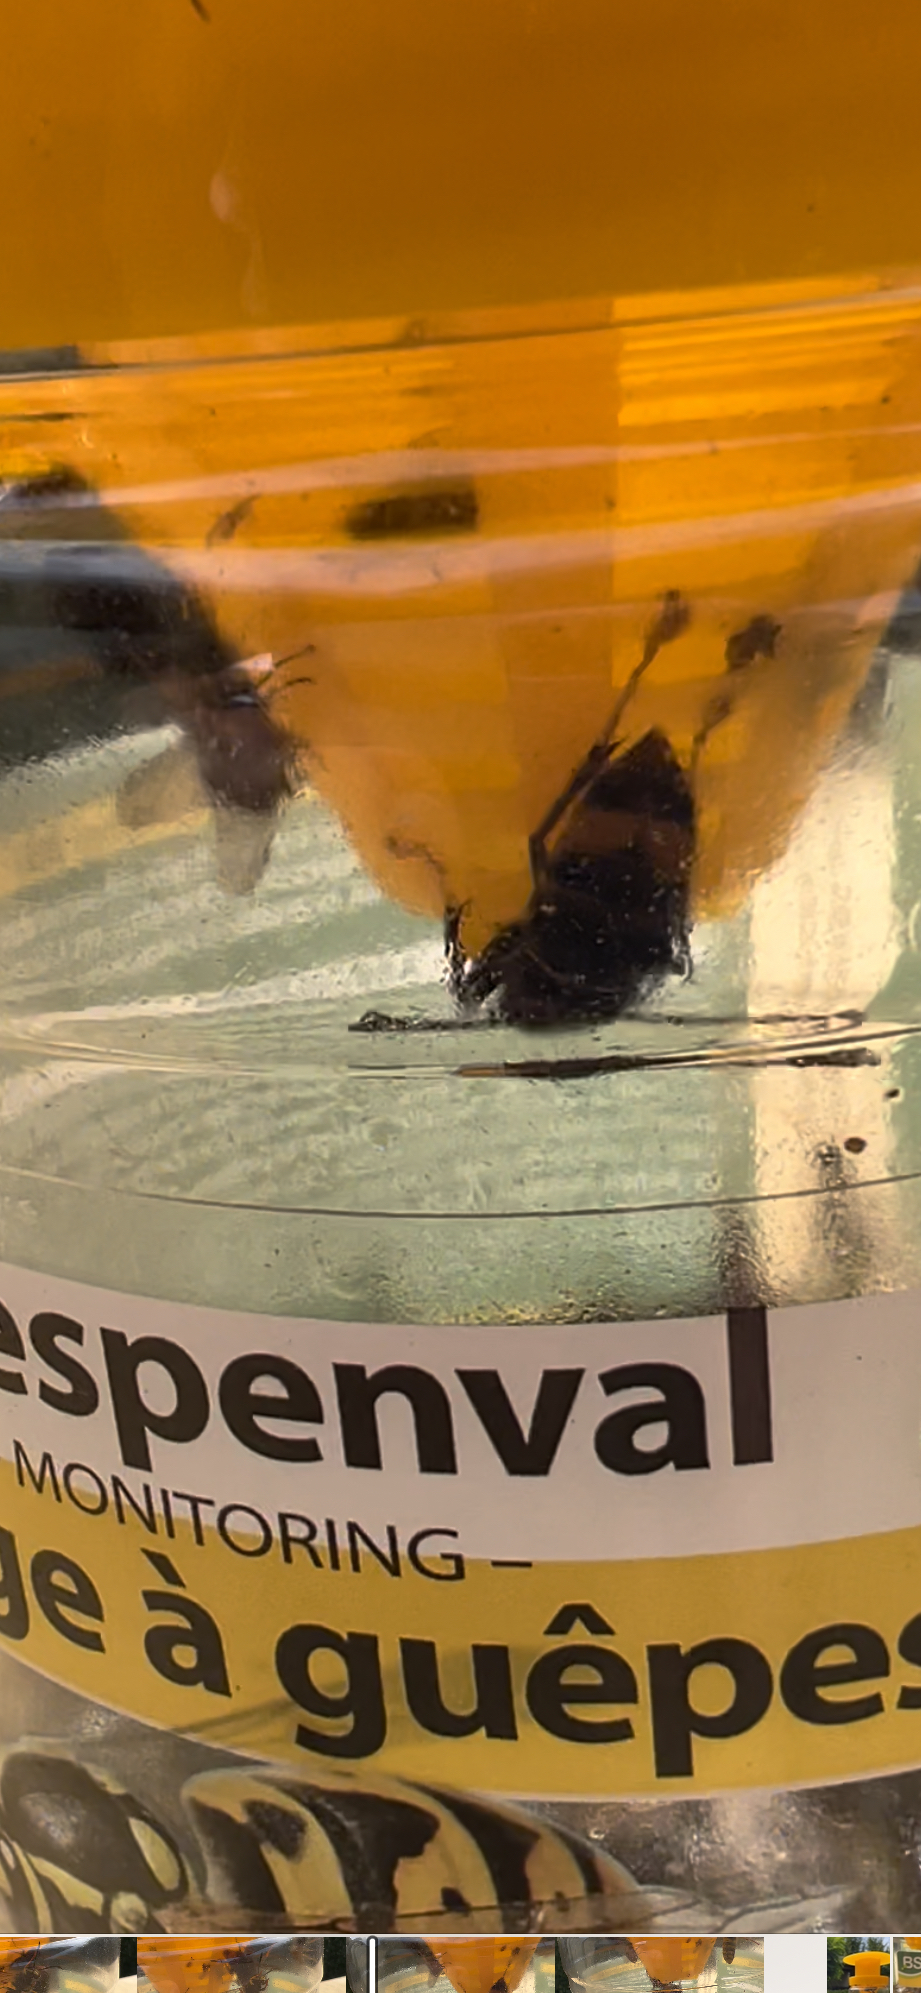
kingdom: Animalia
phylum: Arthropoda
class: Insecta
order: Hymenoptera
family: Vespidae
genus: Vespa
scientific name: Vespa velutina
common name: Asian hornet
